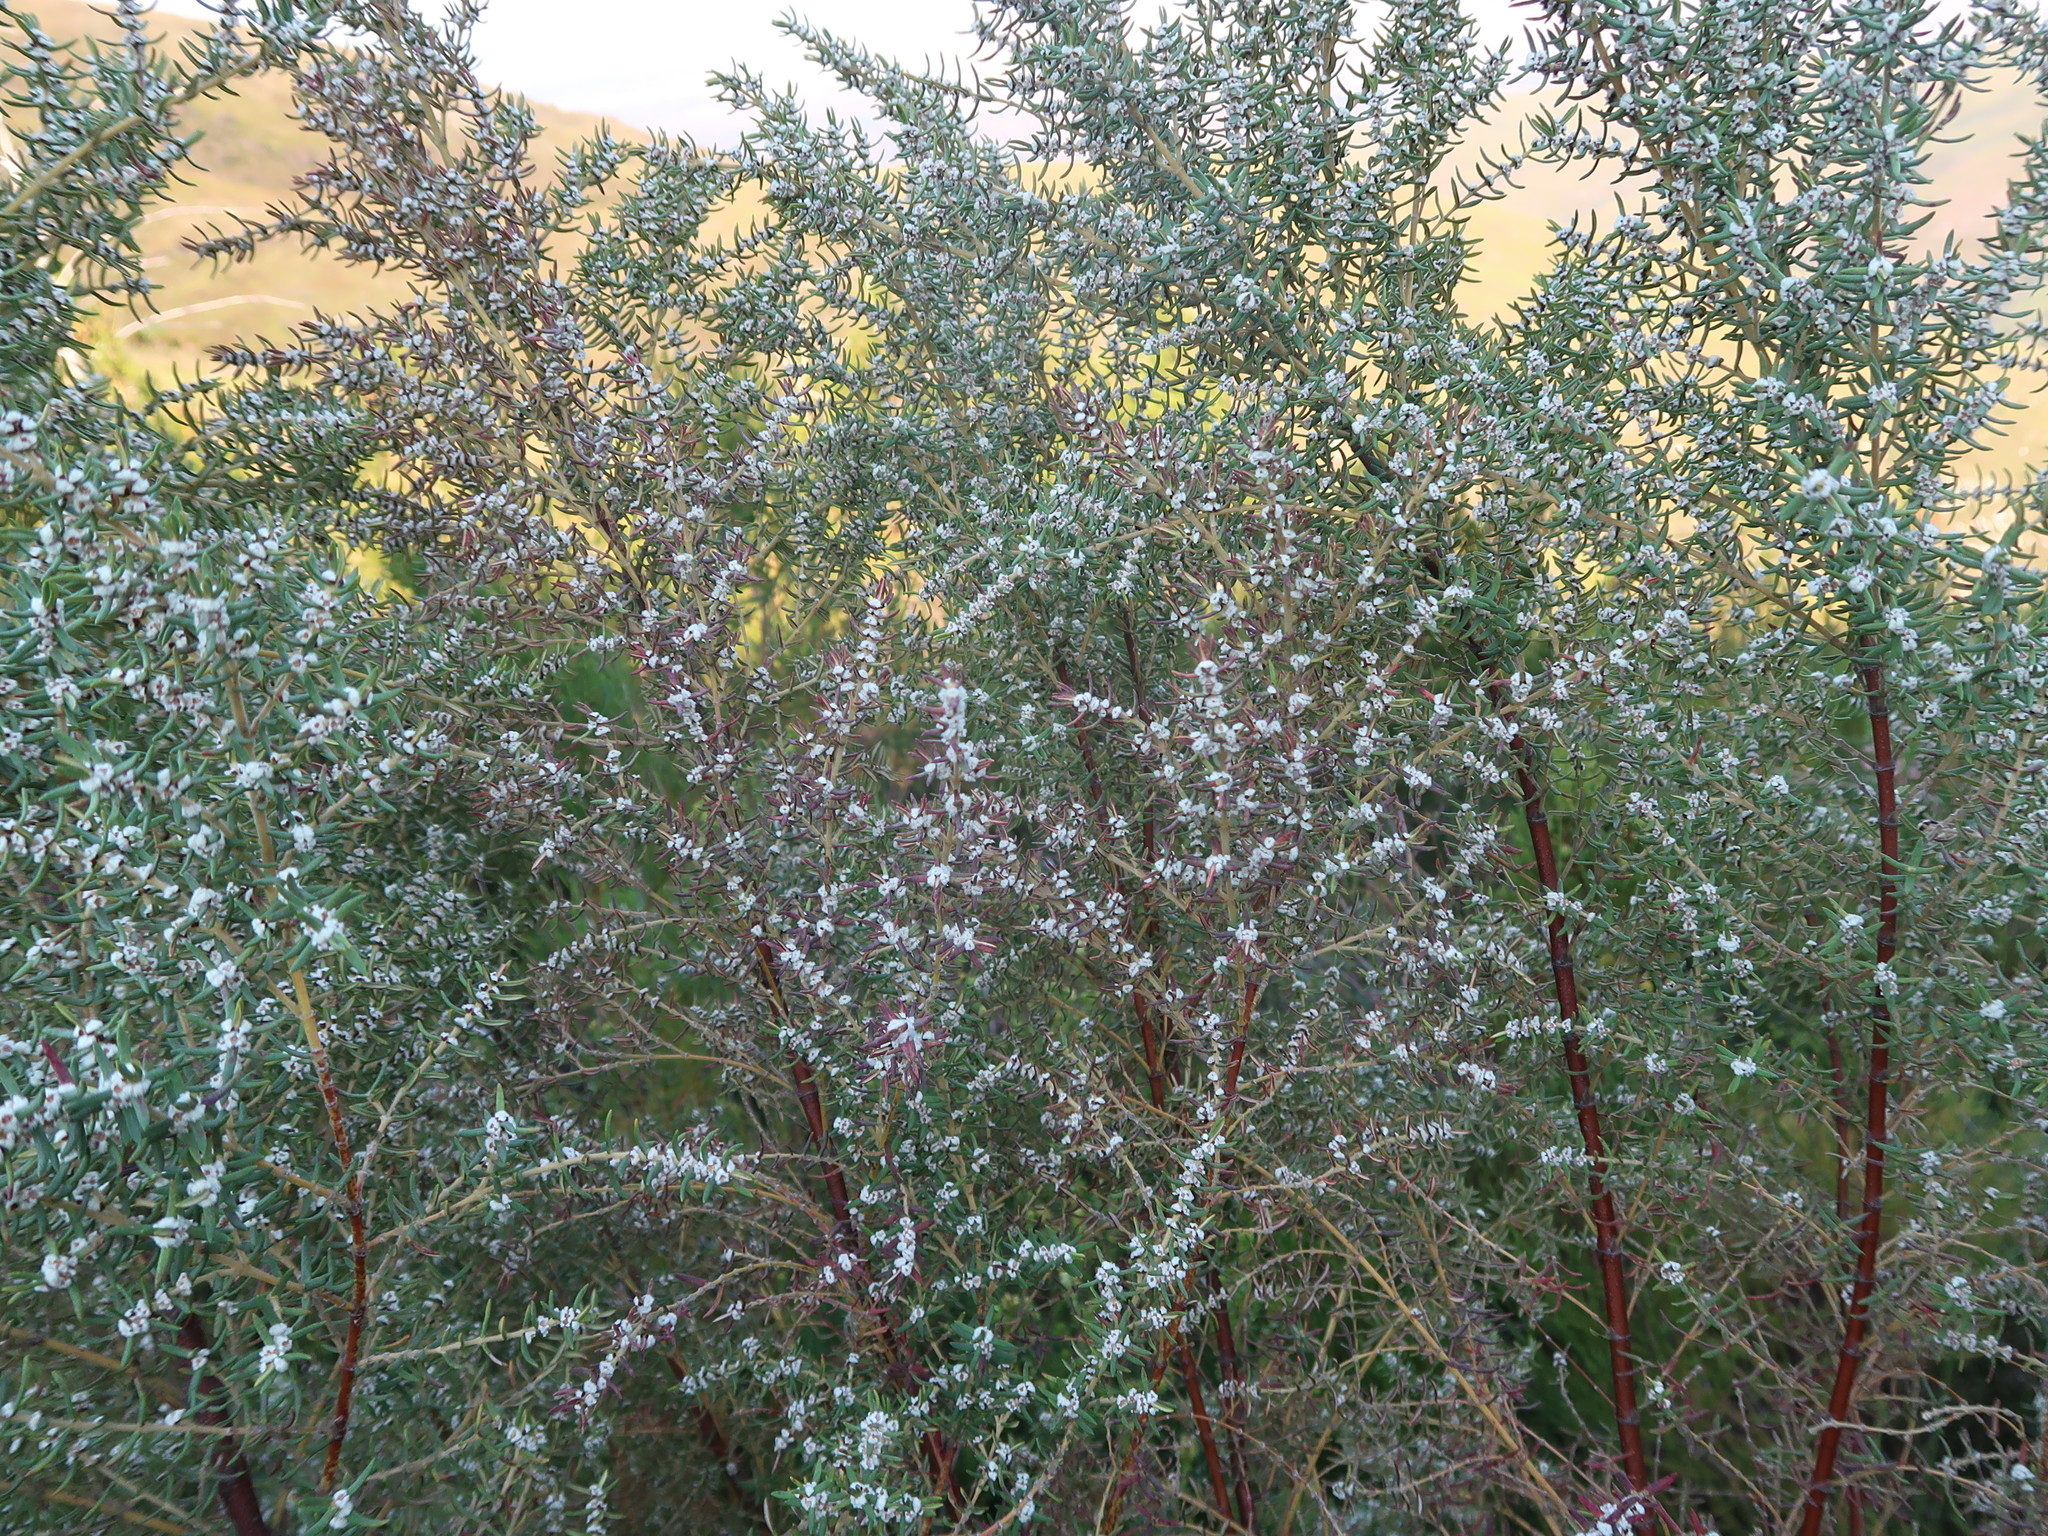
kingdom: Plantae
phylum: Tracheophyta
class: Magnoliopsida
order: Cornales
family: Grubbiaceae
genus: Grubbia
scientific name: Grubbia rosmarinifolia
